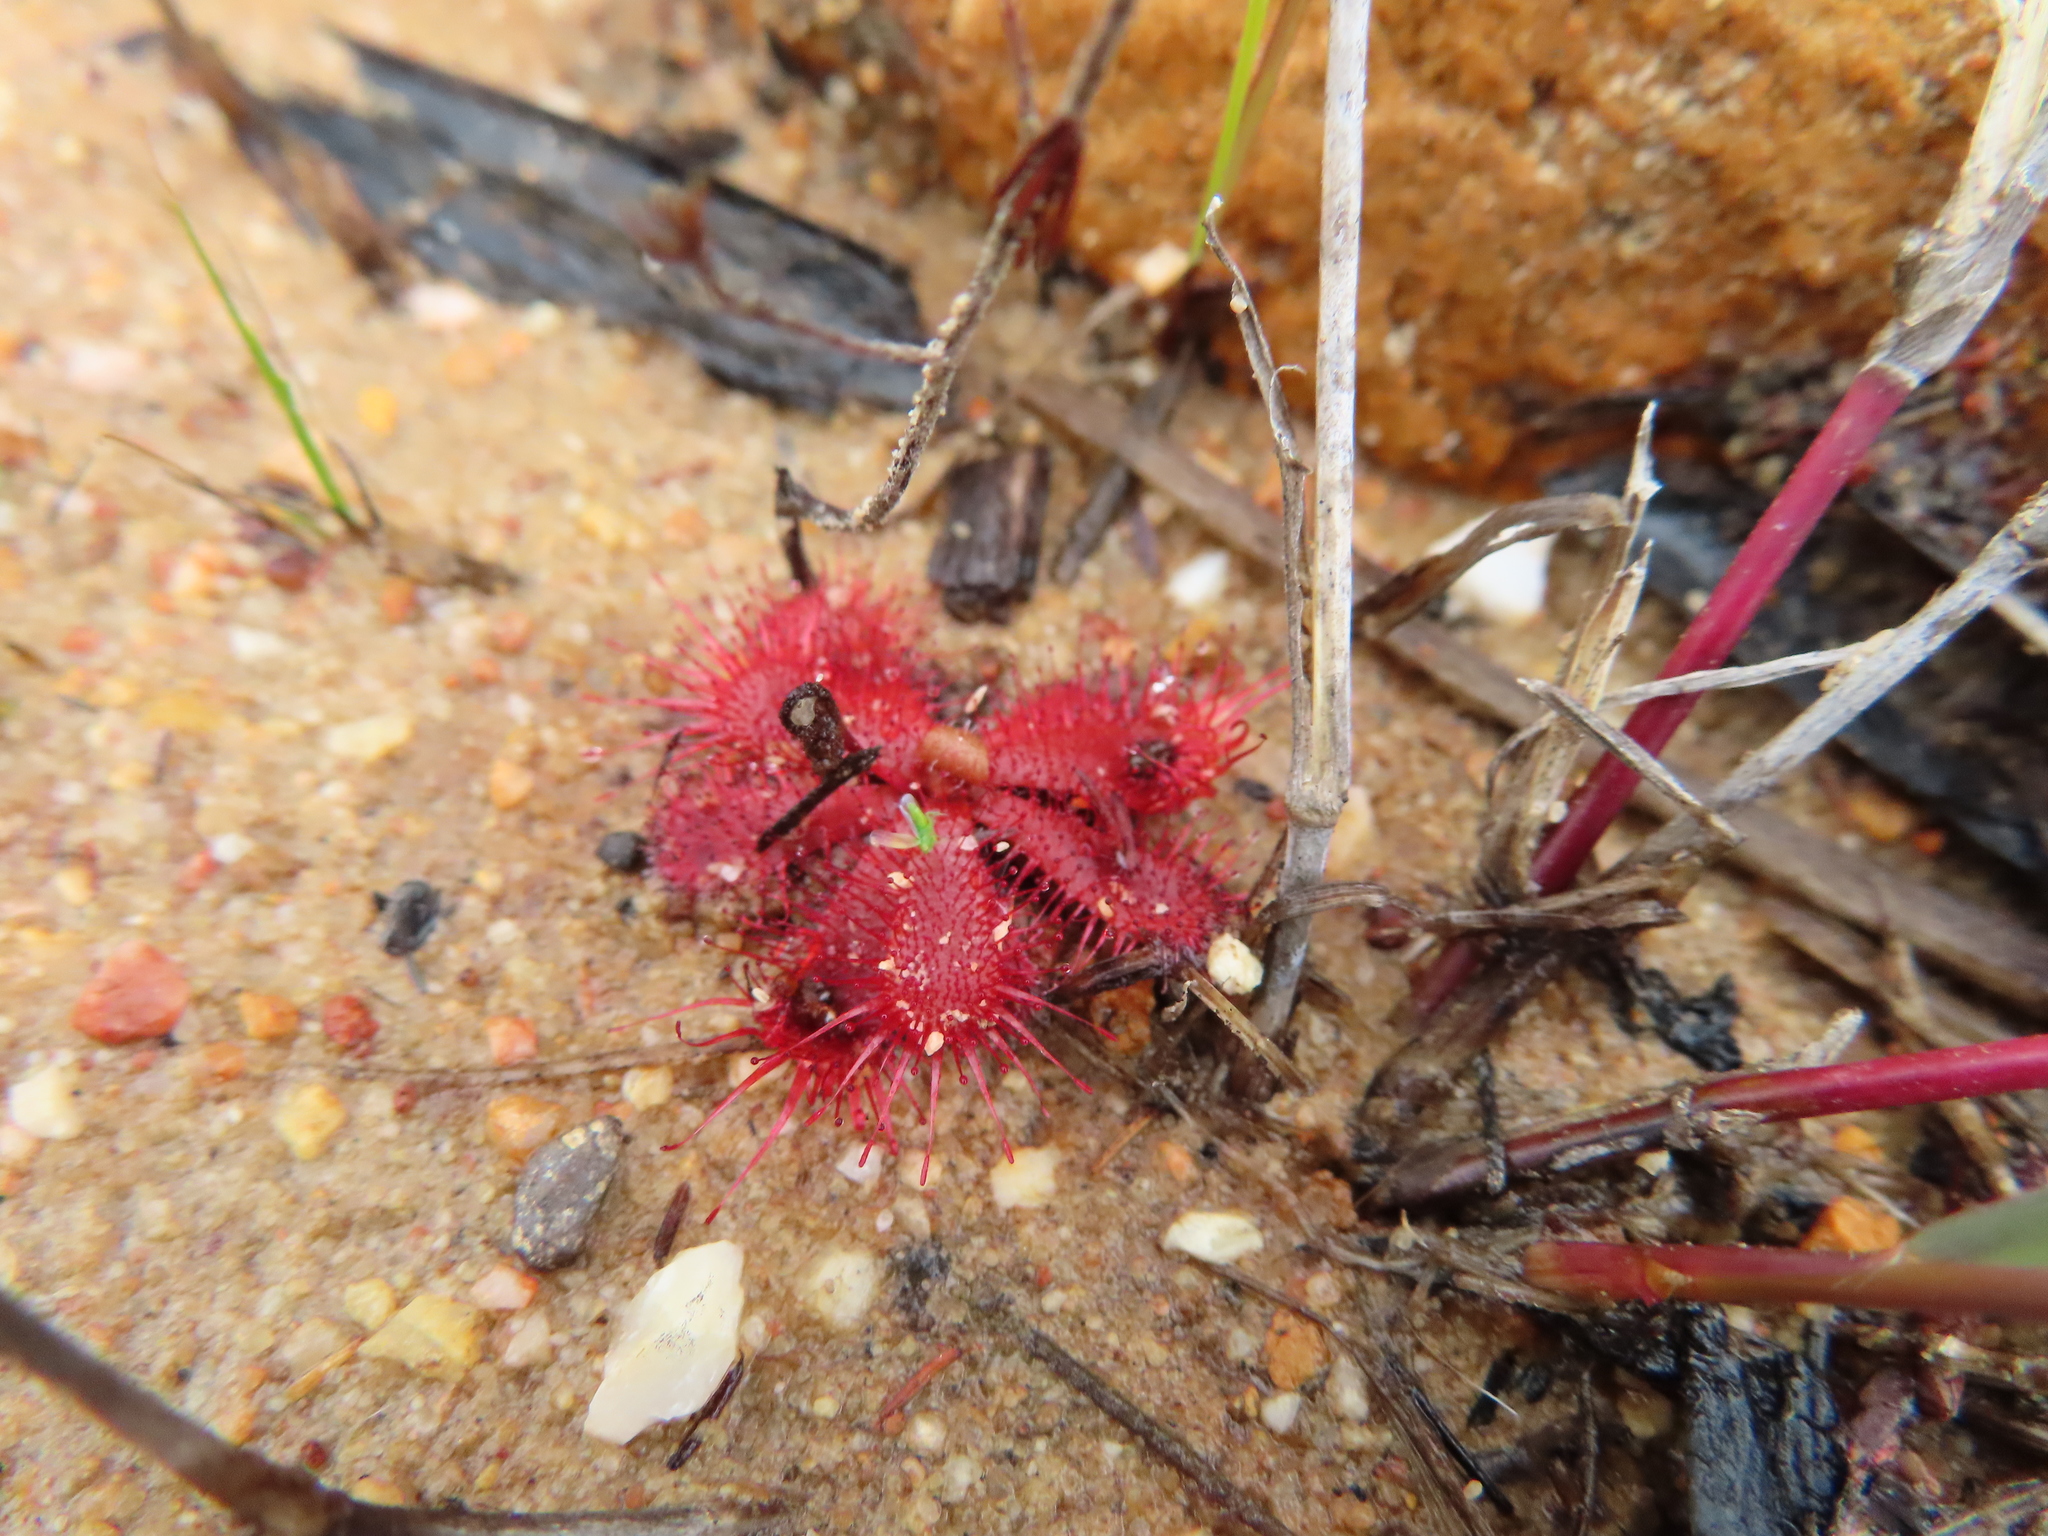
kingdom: Plantae
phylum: Tracheophyta
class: Magnoliopsida
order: Caryophyllales
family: Droseraceae
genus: Drosera
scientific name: Drosera trinervia
